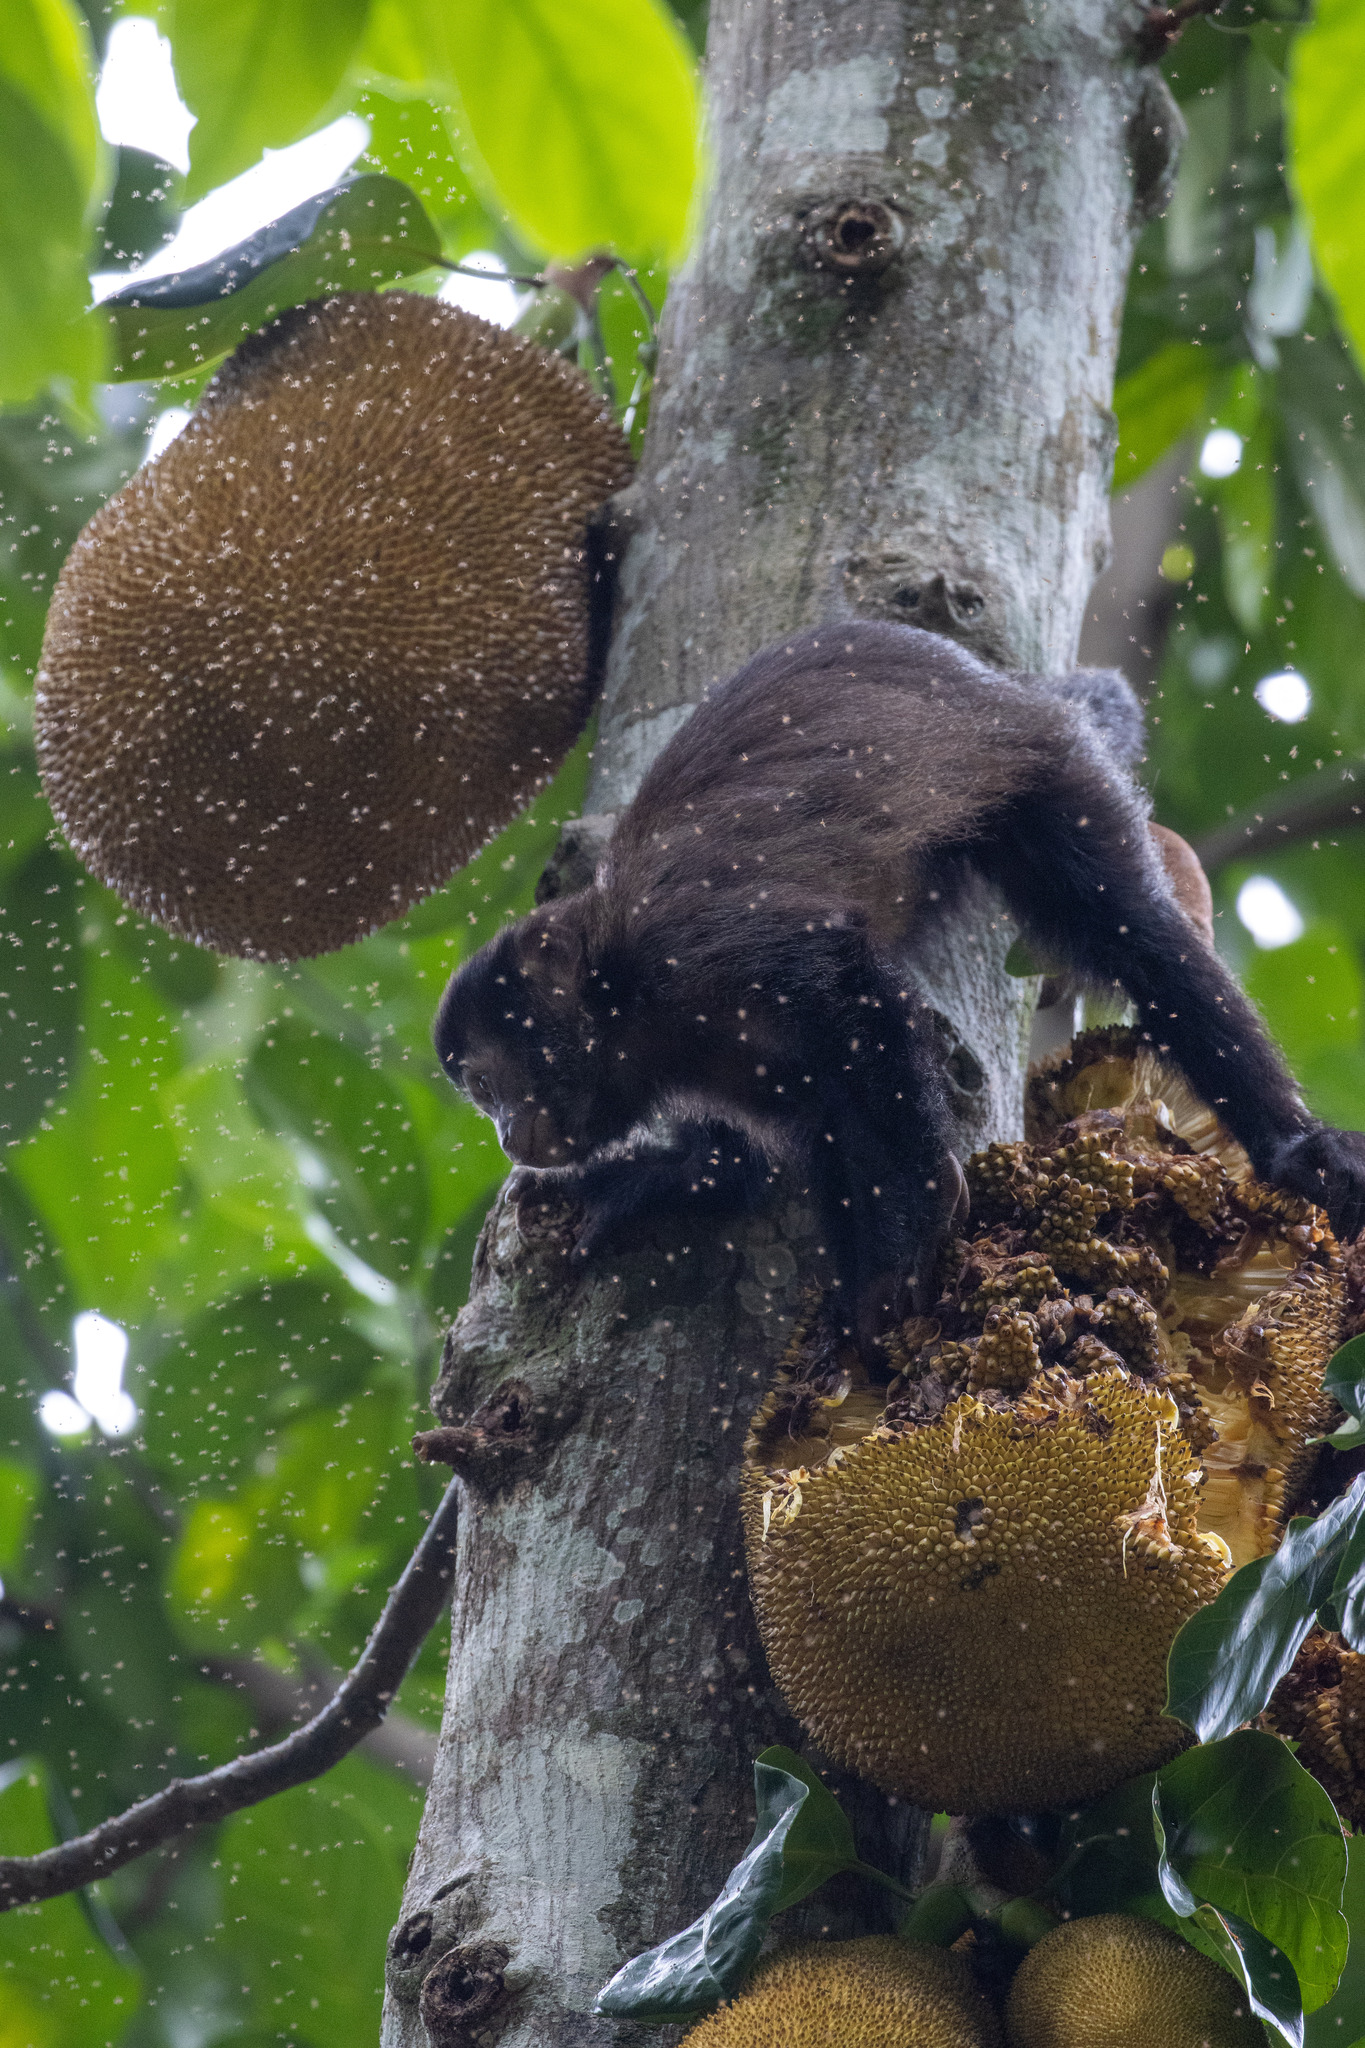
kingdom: Animalia
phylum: Chordata
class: Mammalia
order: Primates
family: Cebidae
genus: Sapajus
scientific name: Sapajus nigritus
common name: Black capuchin
